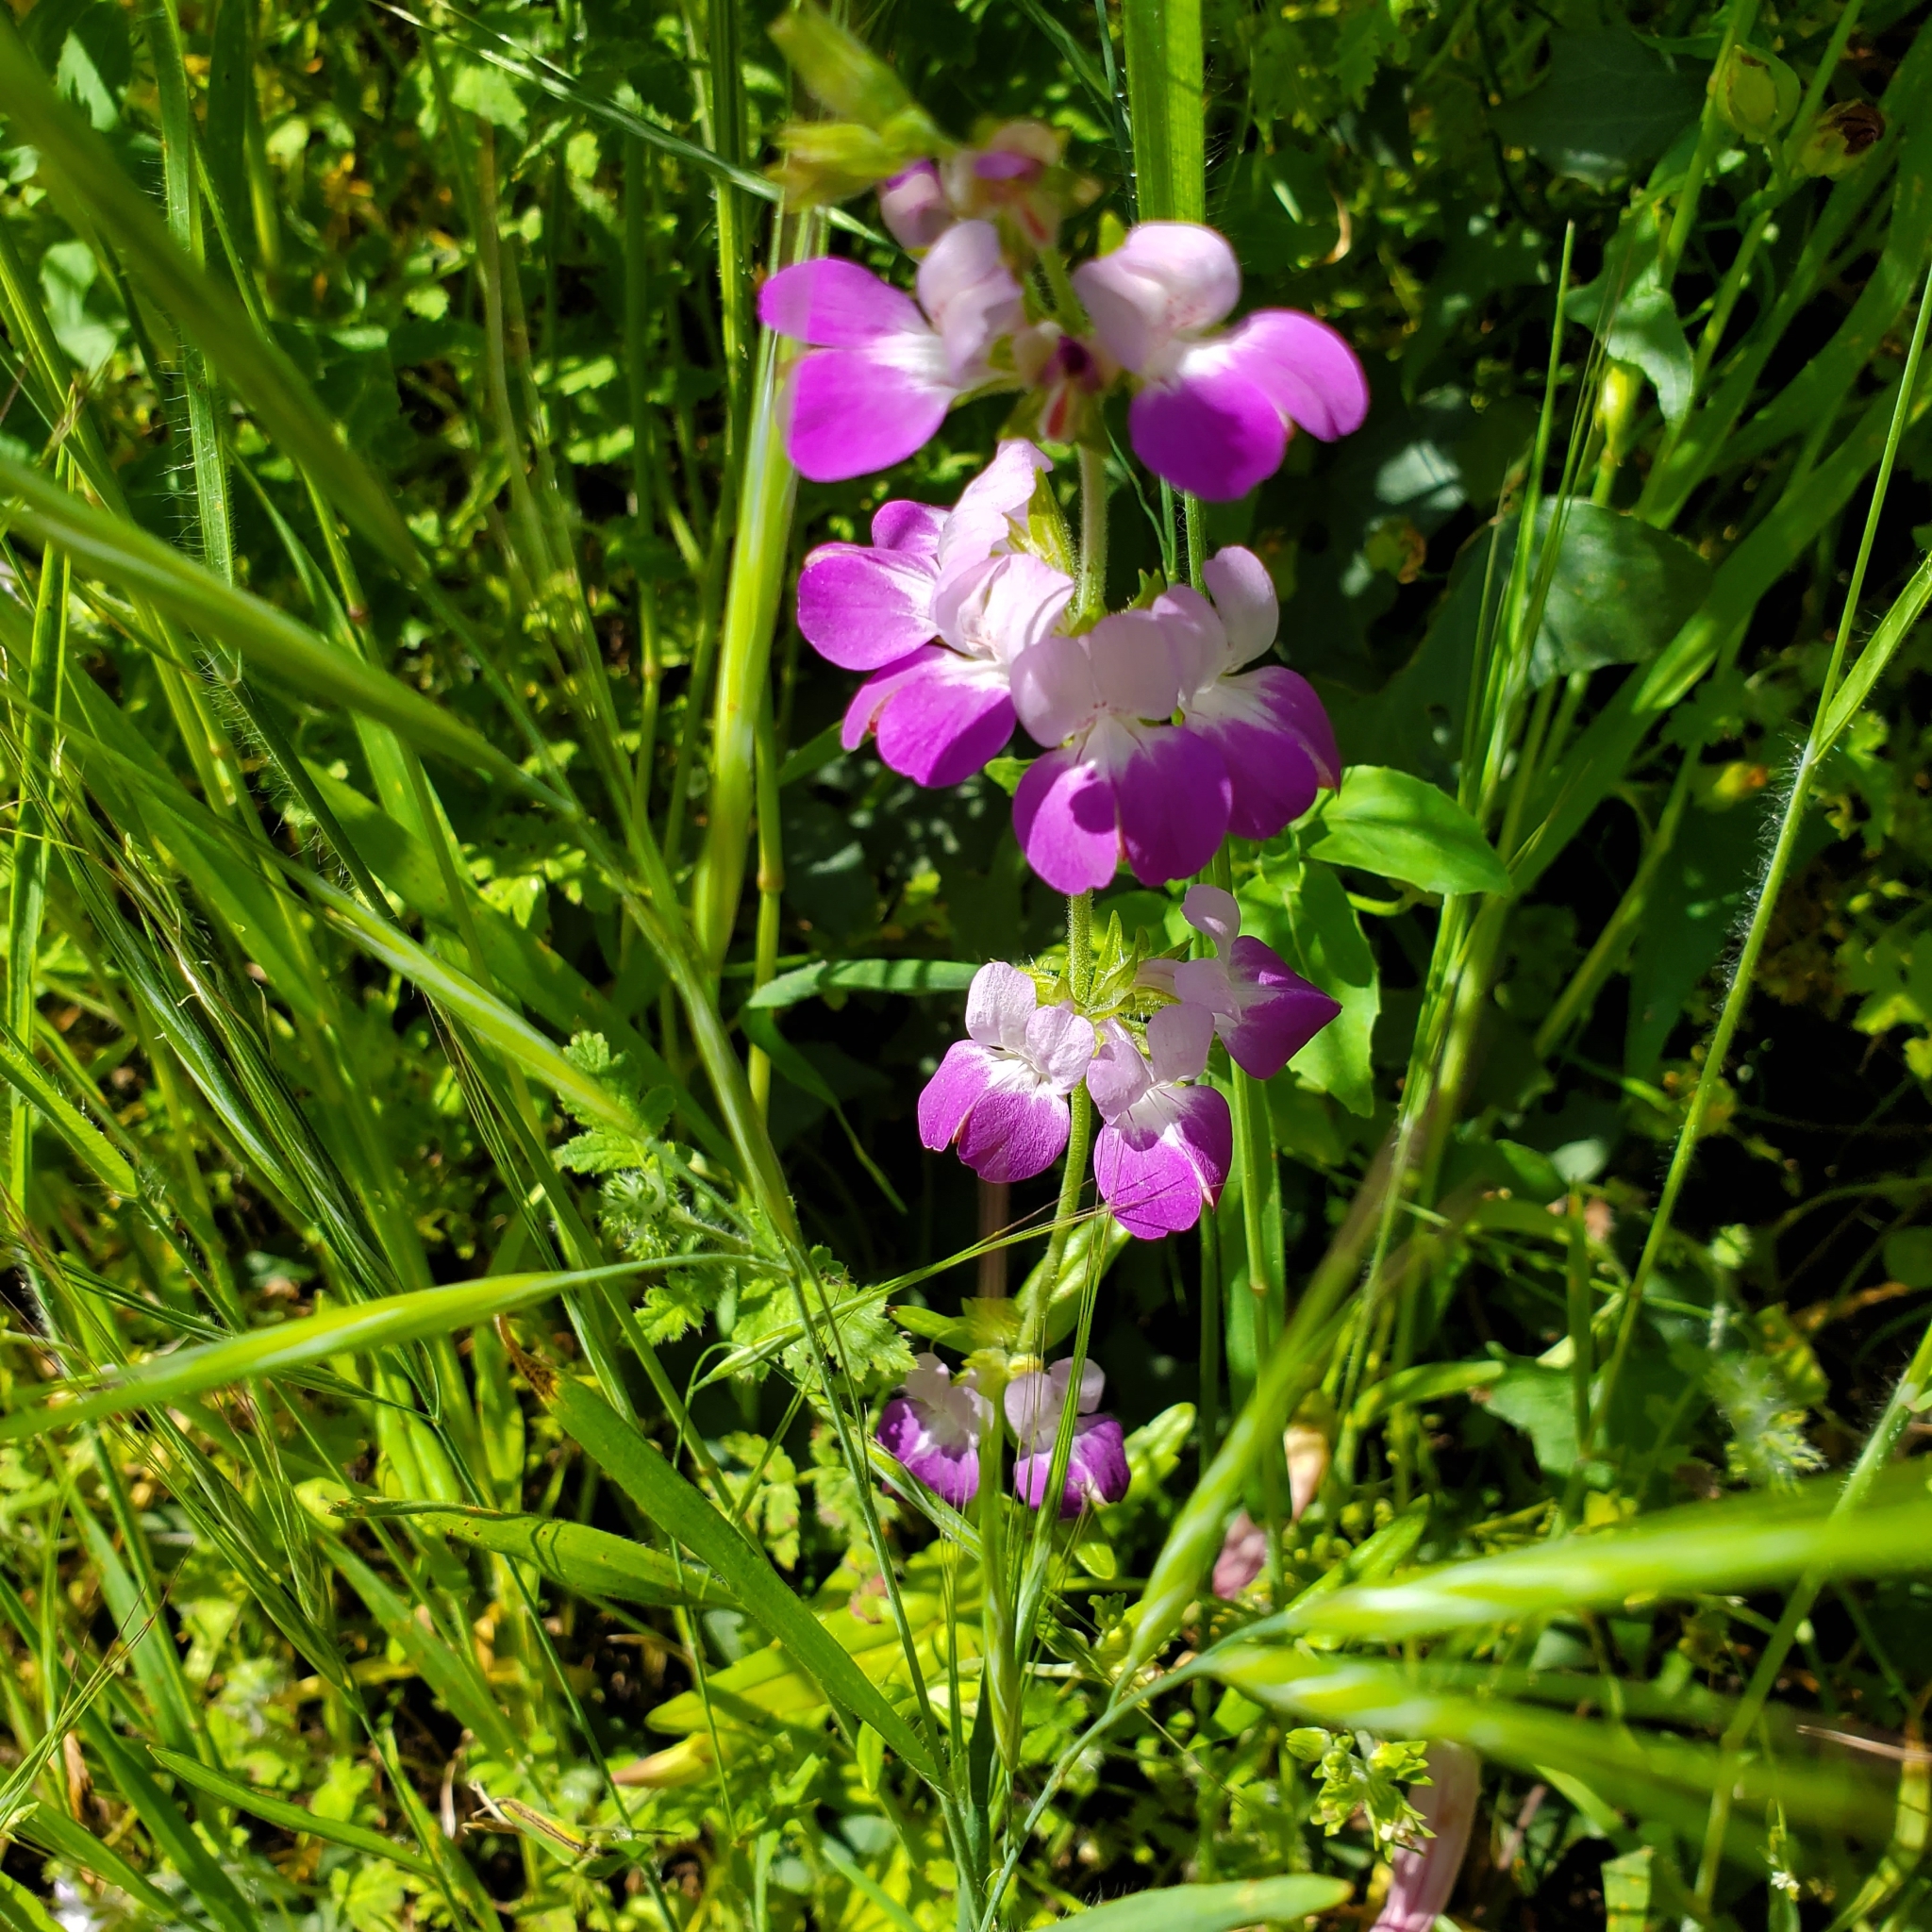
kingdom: Plantae
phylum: Tracheophyta
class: Magnoliopsida
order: Lamiales
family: Plantaginaceae
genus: Collinsia
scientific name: Collinsia heterophylla
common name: Chinese-houses
